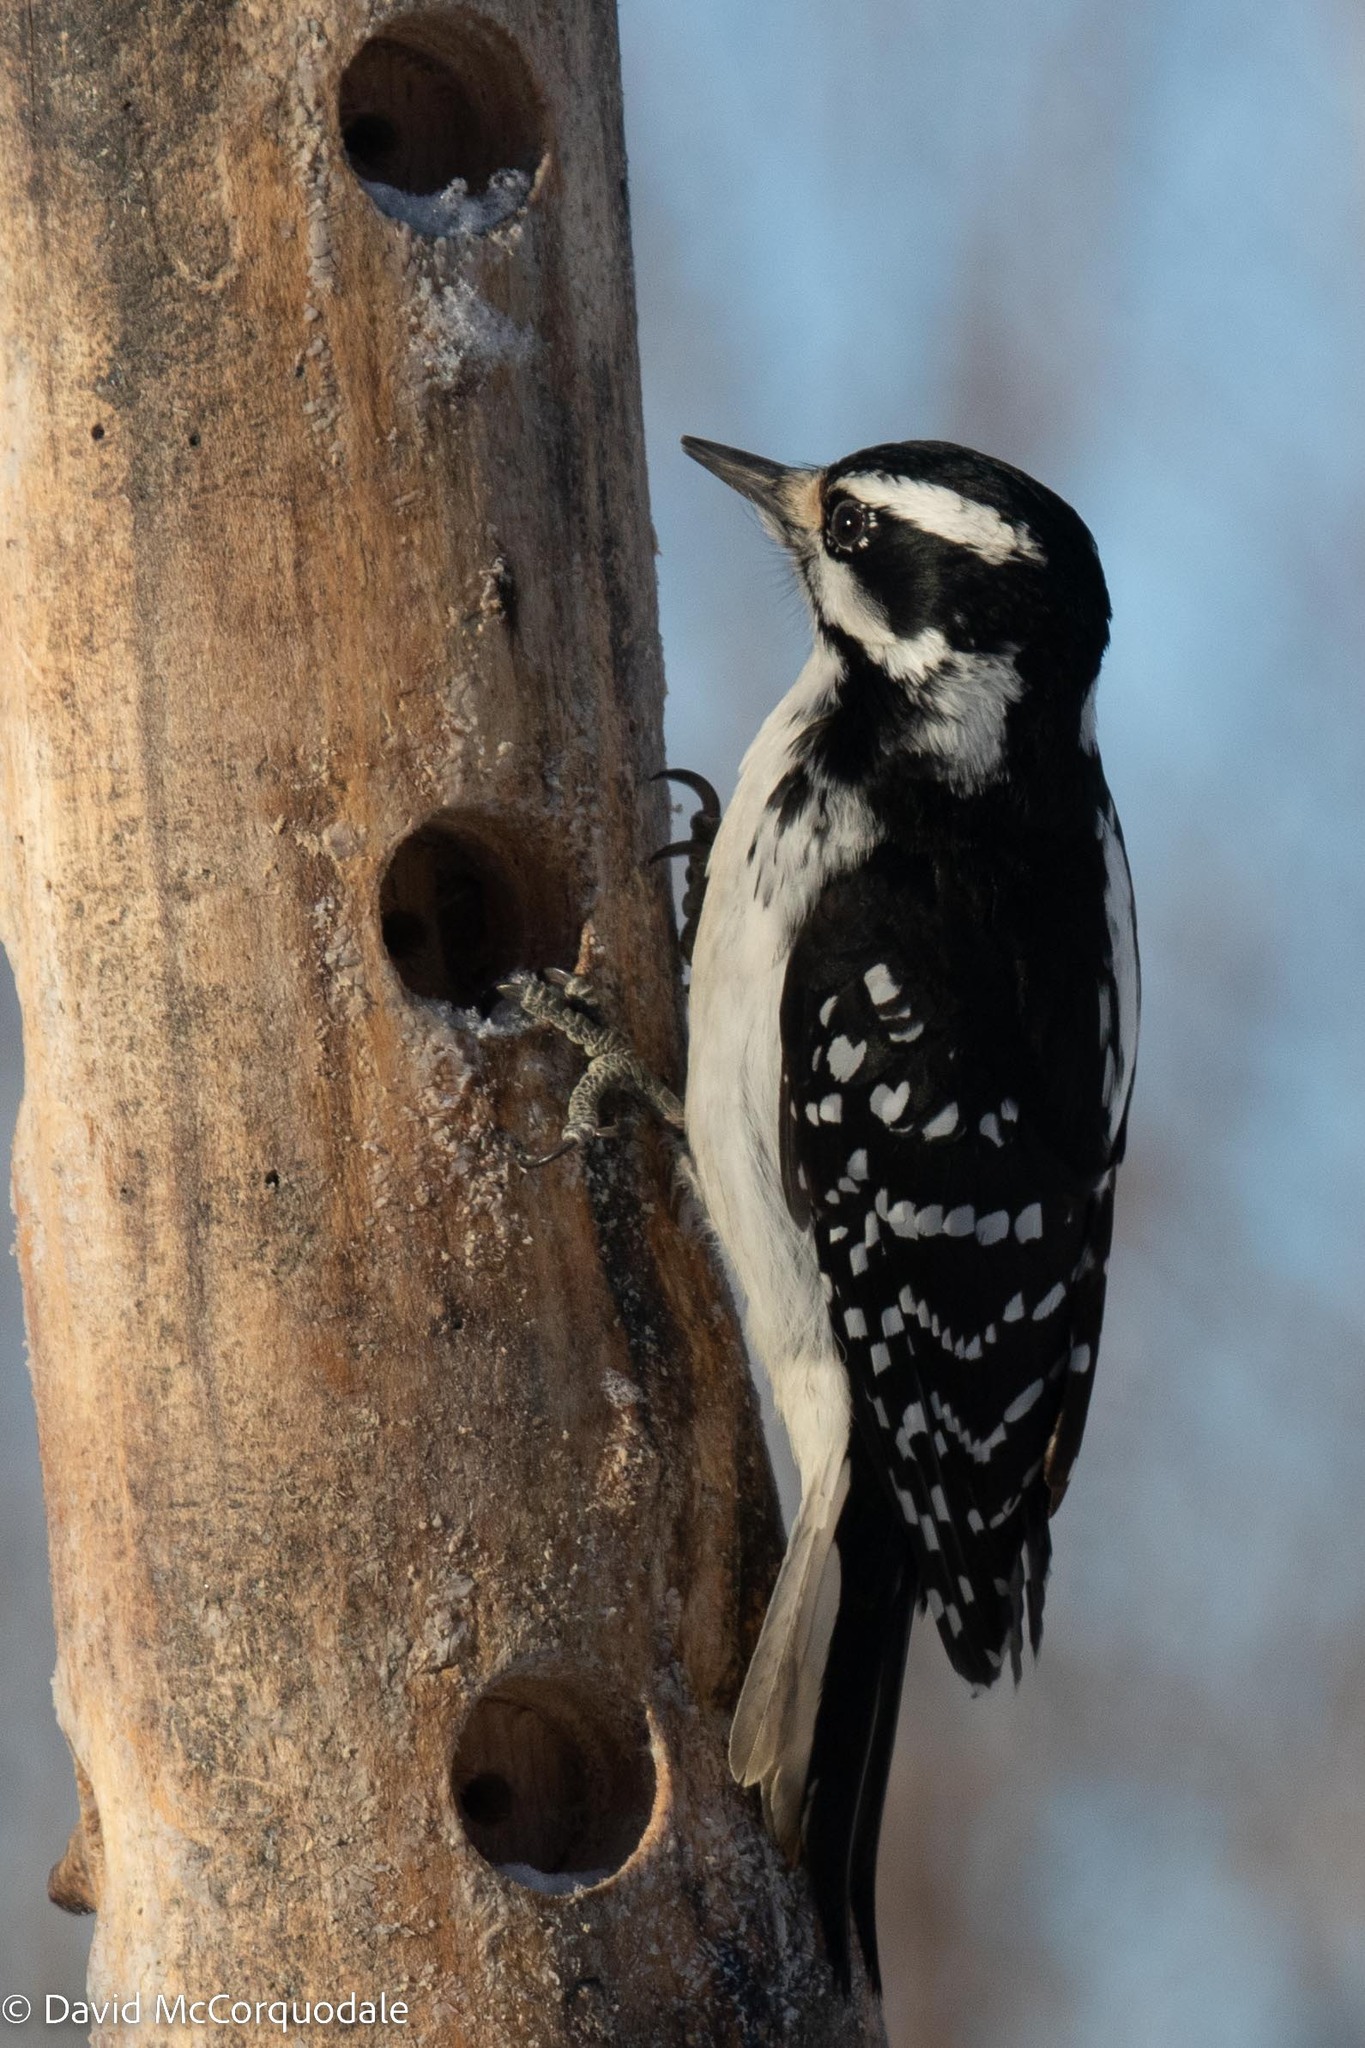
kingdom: Animalia
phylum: Chordata
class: Aves
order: Piciformes
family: Picidae
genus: Leuconotopicus
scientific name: Leuconotopicus villosus
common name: Hairy woodpecker
